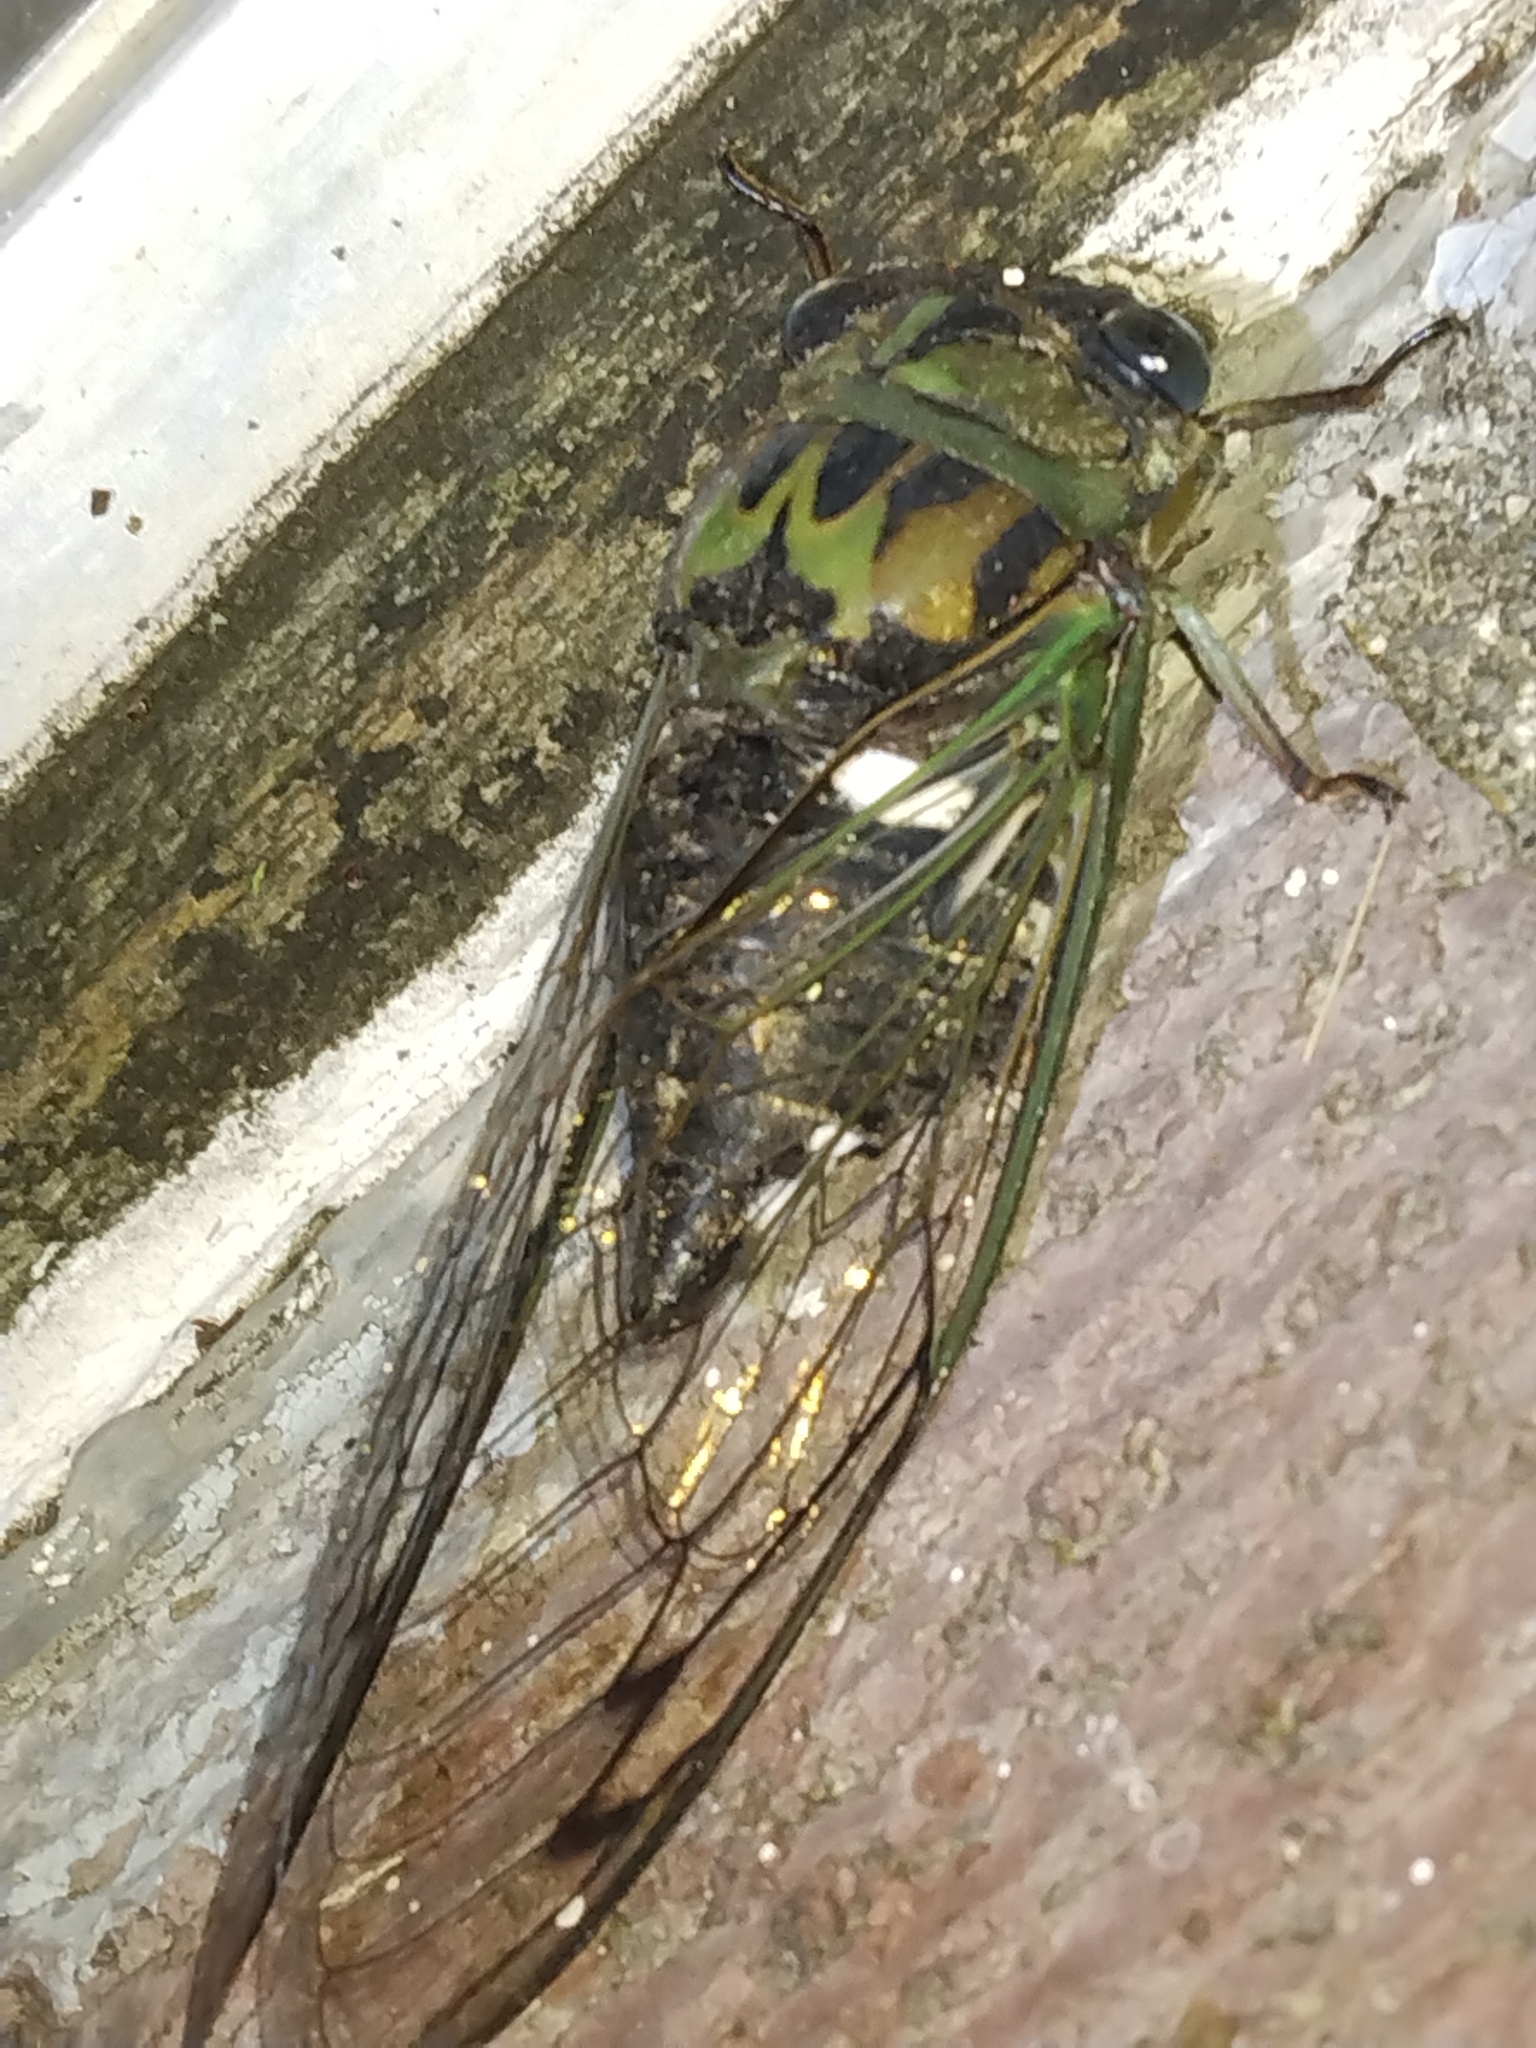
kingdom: Animalia
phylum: Arthropoda
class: Insecta
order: Hemiptera
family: Cicadidae
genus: Neotibicen
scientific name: Neotibicen pruinosus
